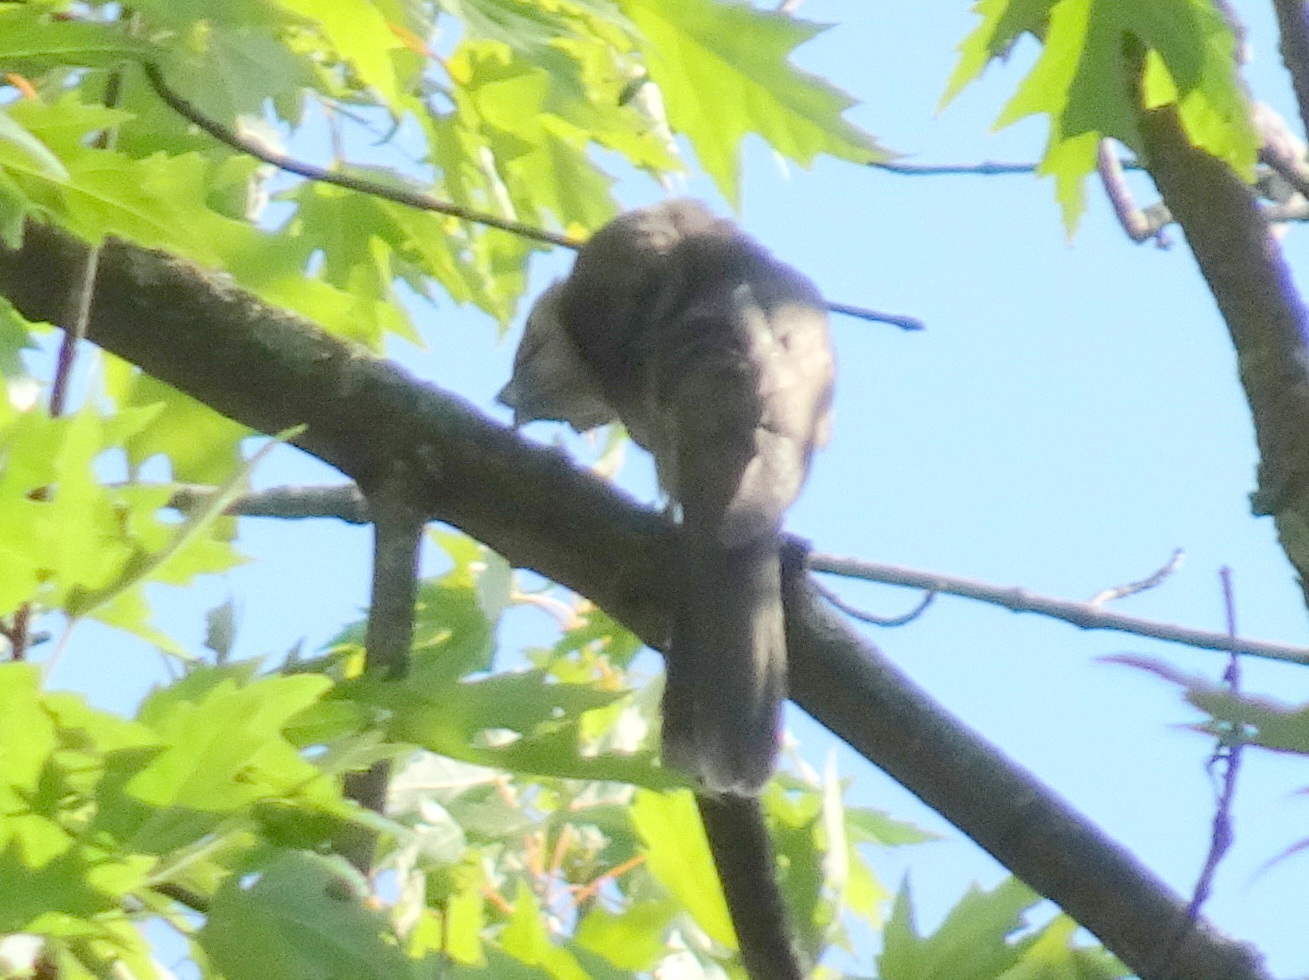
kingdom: Animalia
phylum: Chordata
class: Aves
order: Cuculiformes
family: Cuculidae
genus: Coccyzus
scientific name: Coccyzus americanus
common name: Yellow-billed cuckoo
